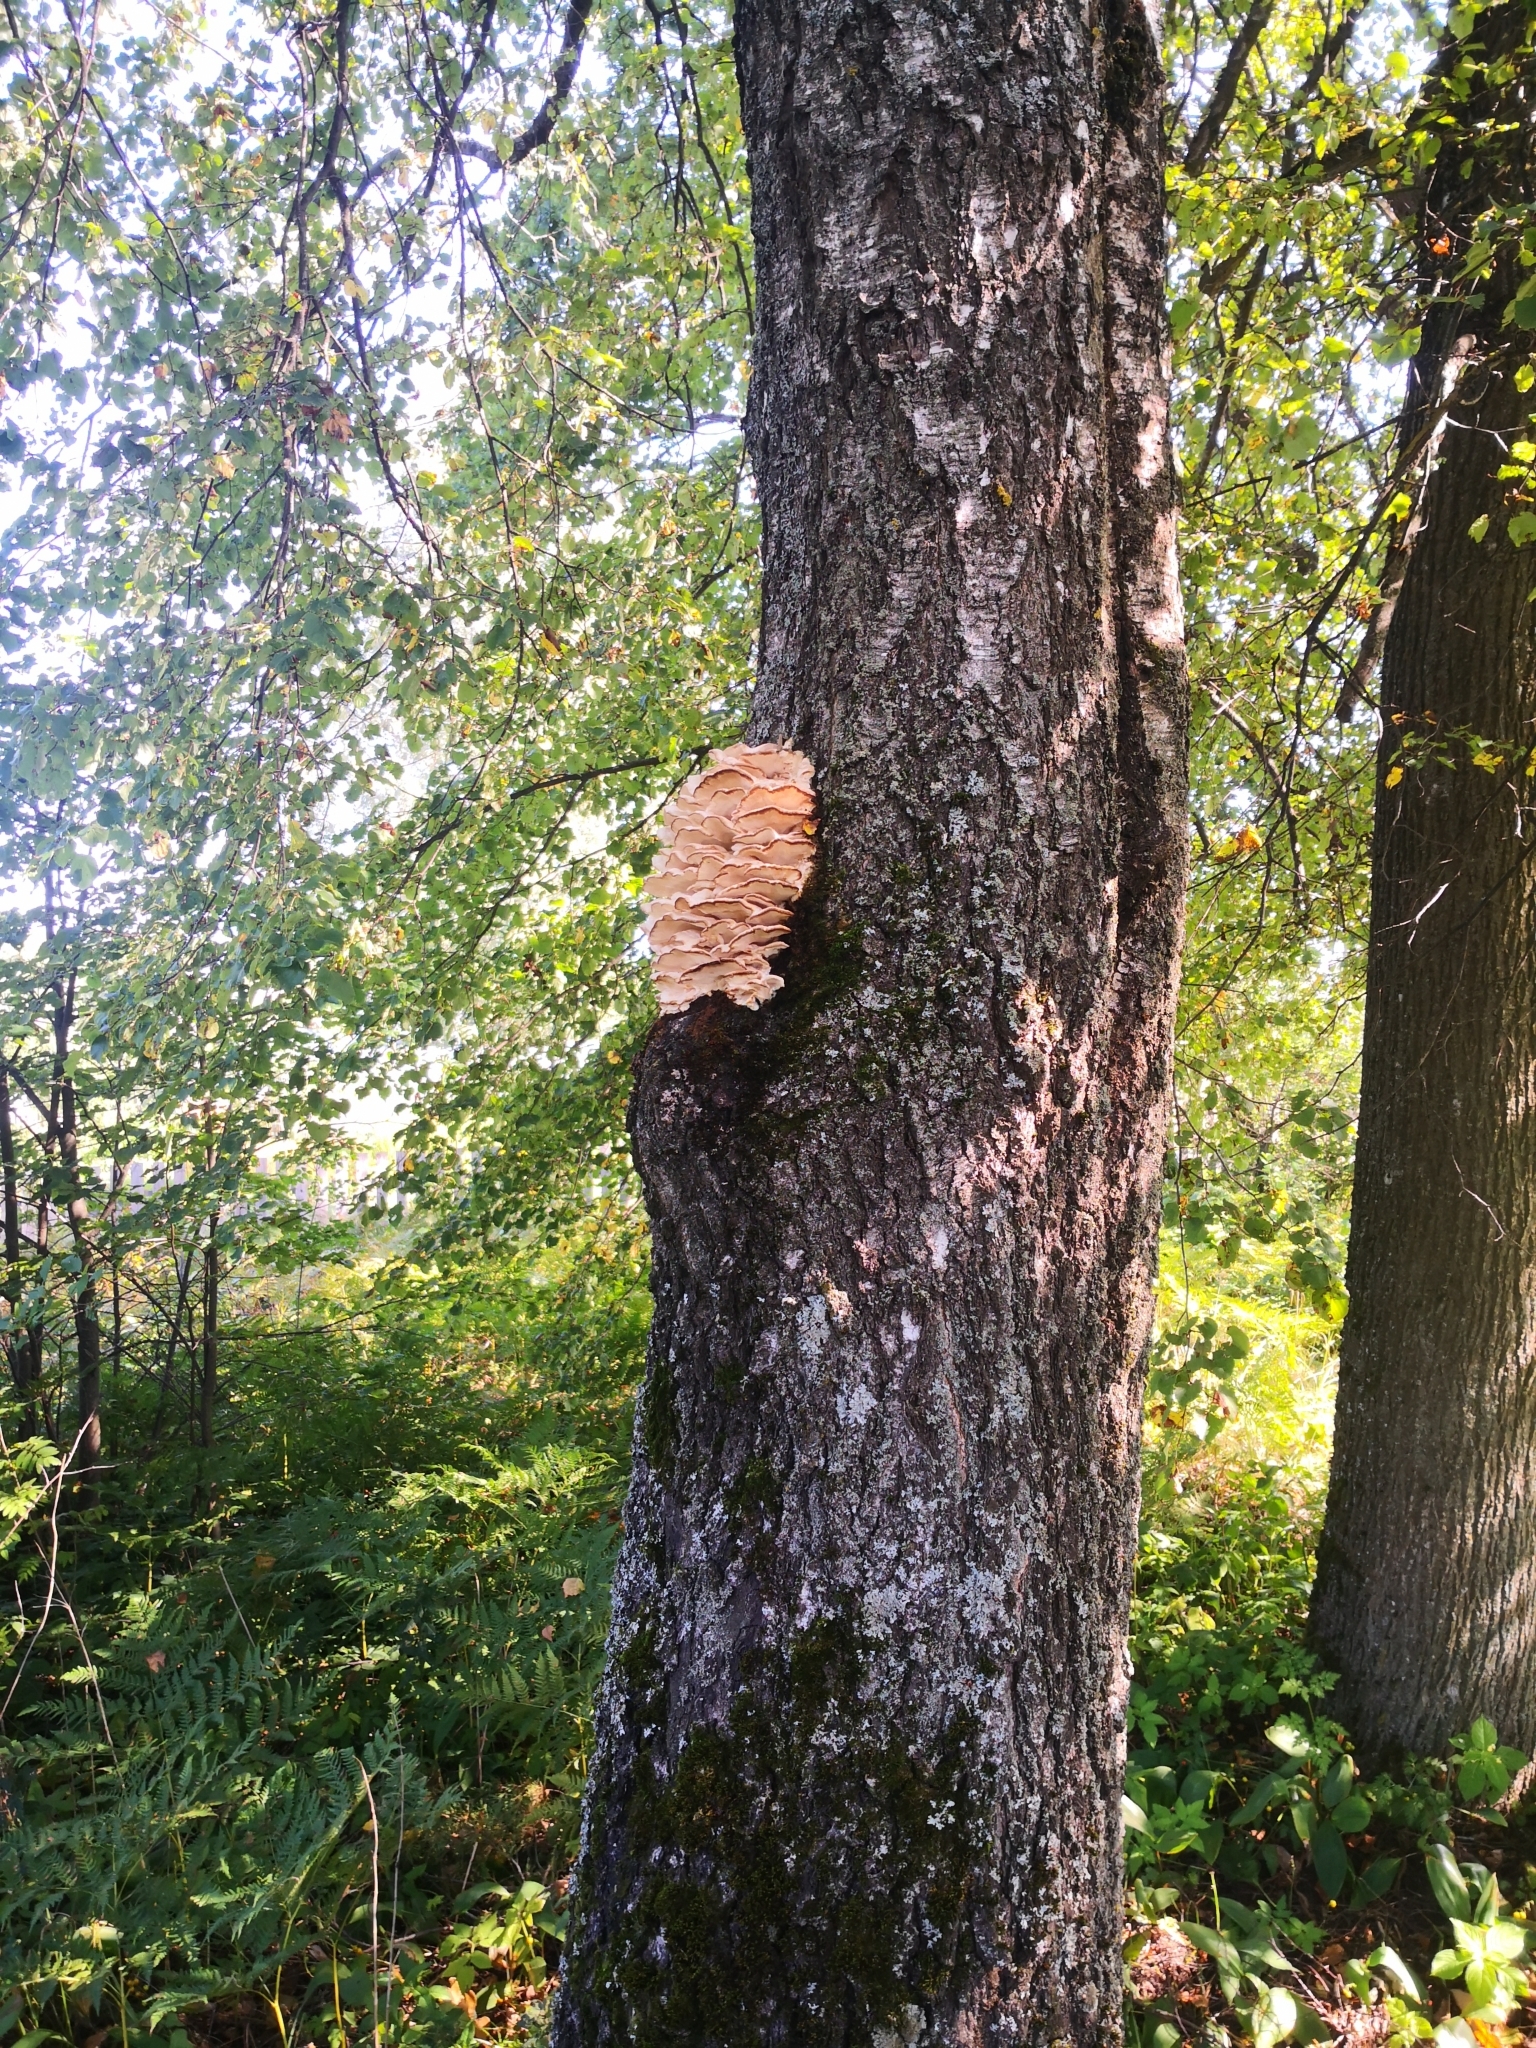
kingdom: Fungi
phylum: Basidiomycota
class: Agaricomycetes
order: Polyporales
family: Meruliaceae
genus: Climacodon
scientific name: Climacodon septentrionalis
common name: Northern tooth
